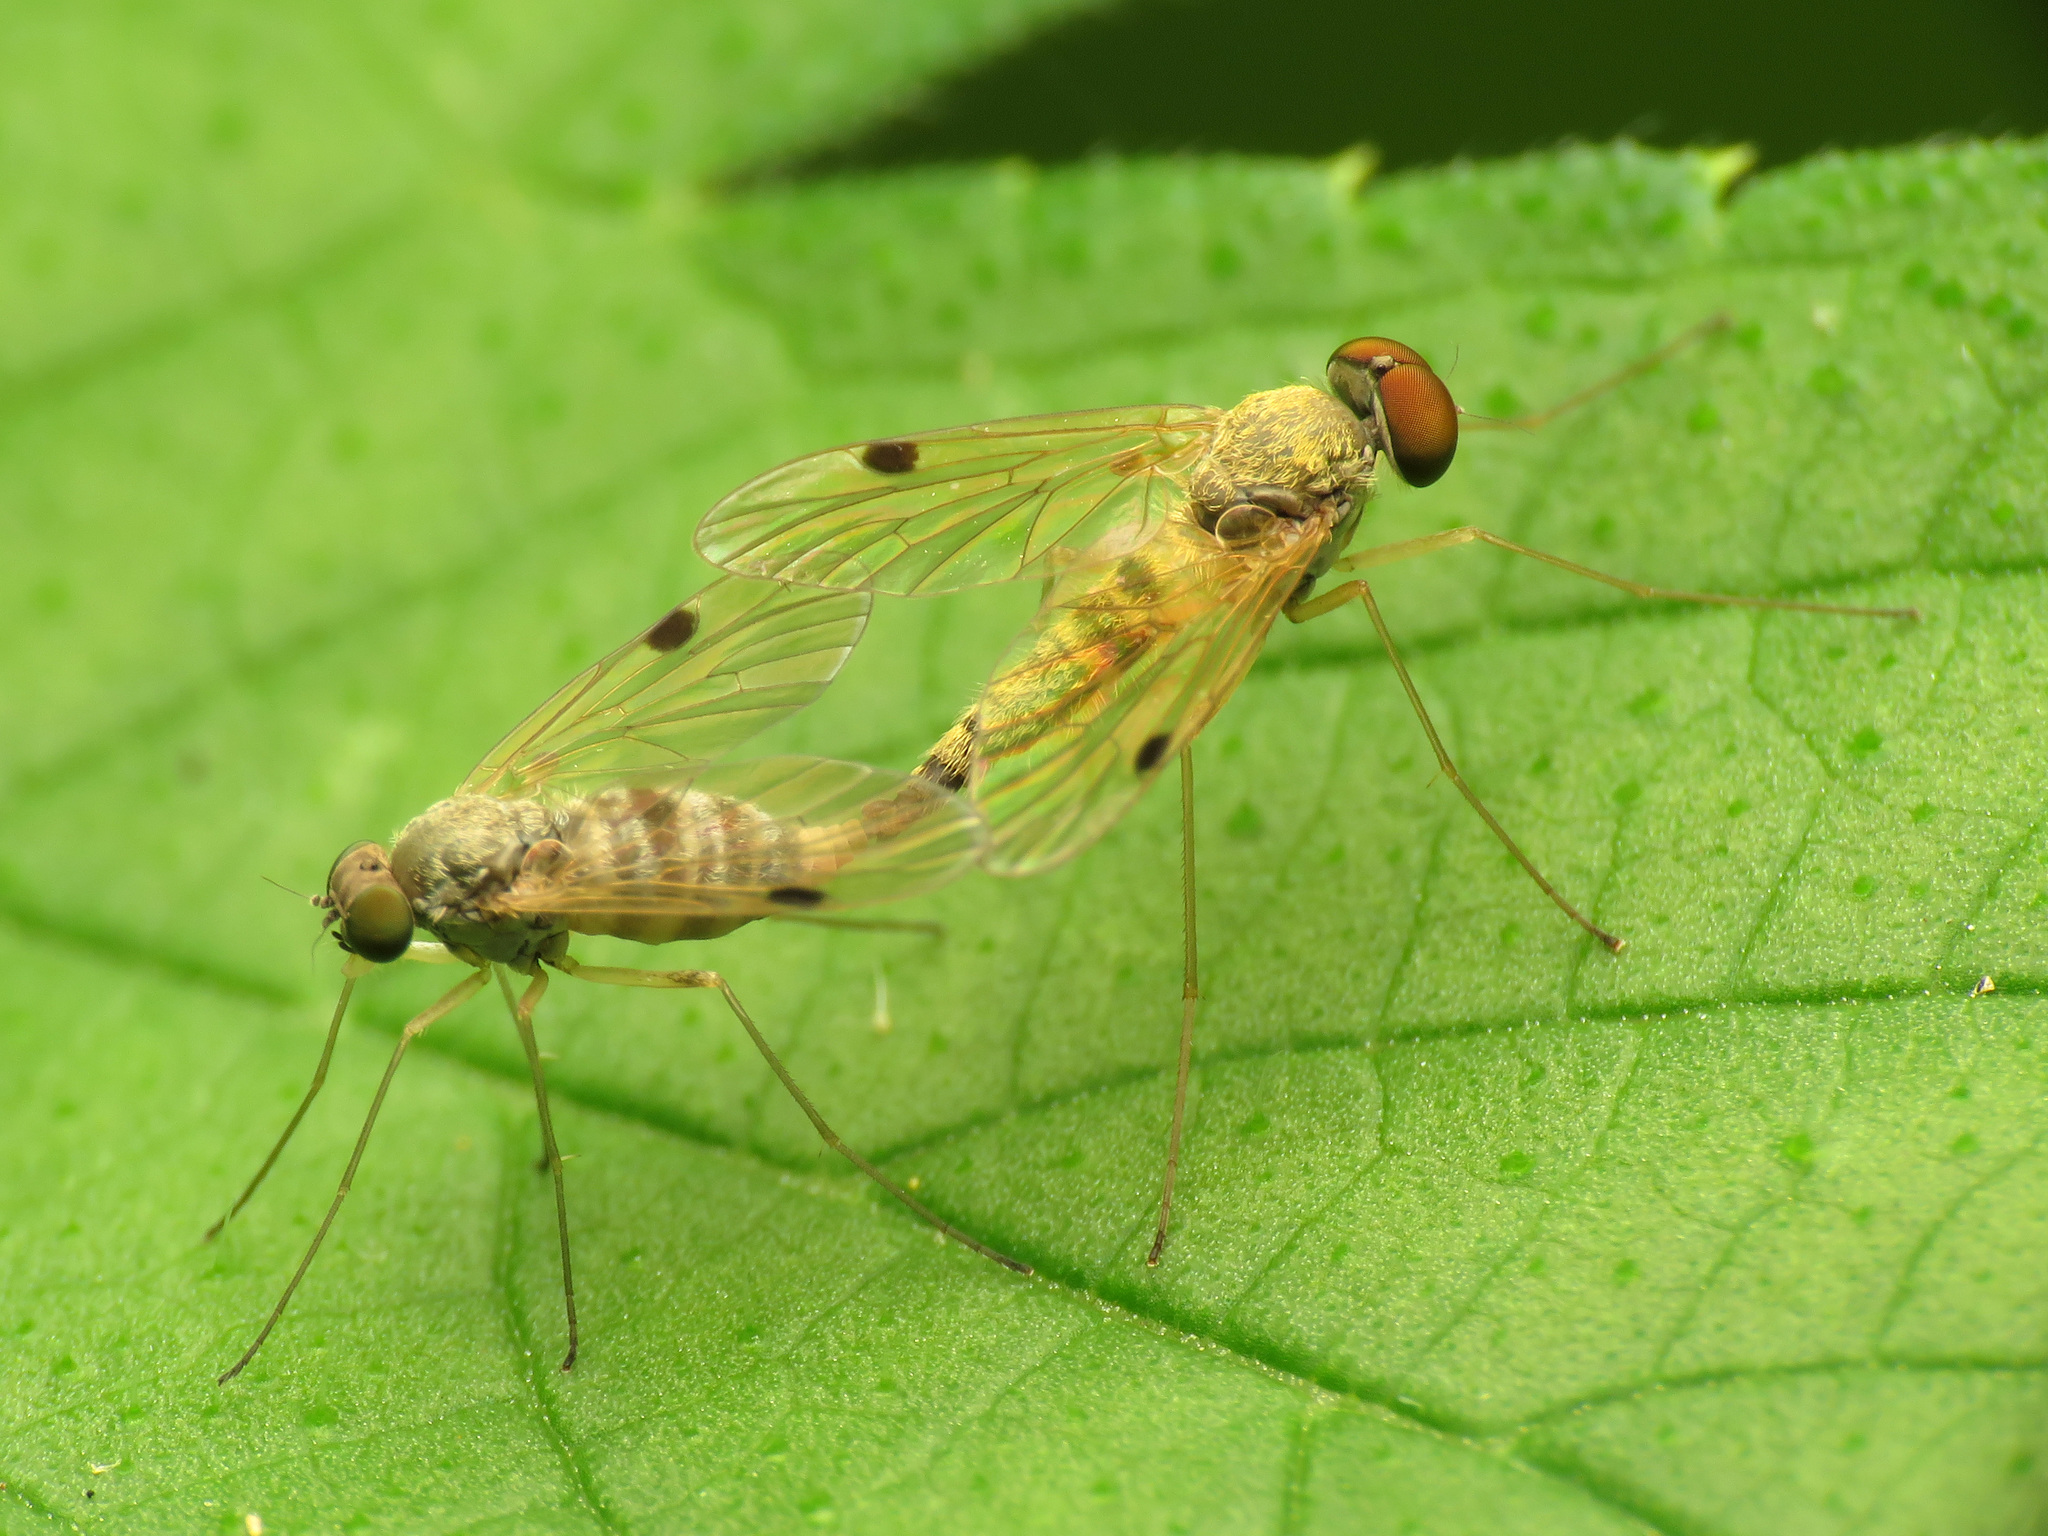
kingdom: Animalia
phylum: Arthropoda
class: Insecta
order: Diptera
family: Rhagionidae
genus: Chrysopilus
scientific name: Chrysopilus modestus
